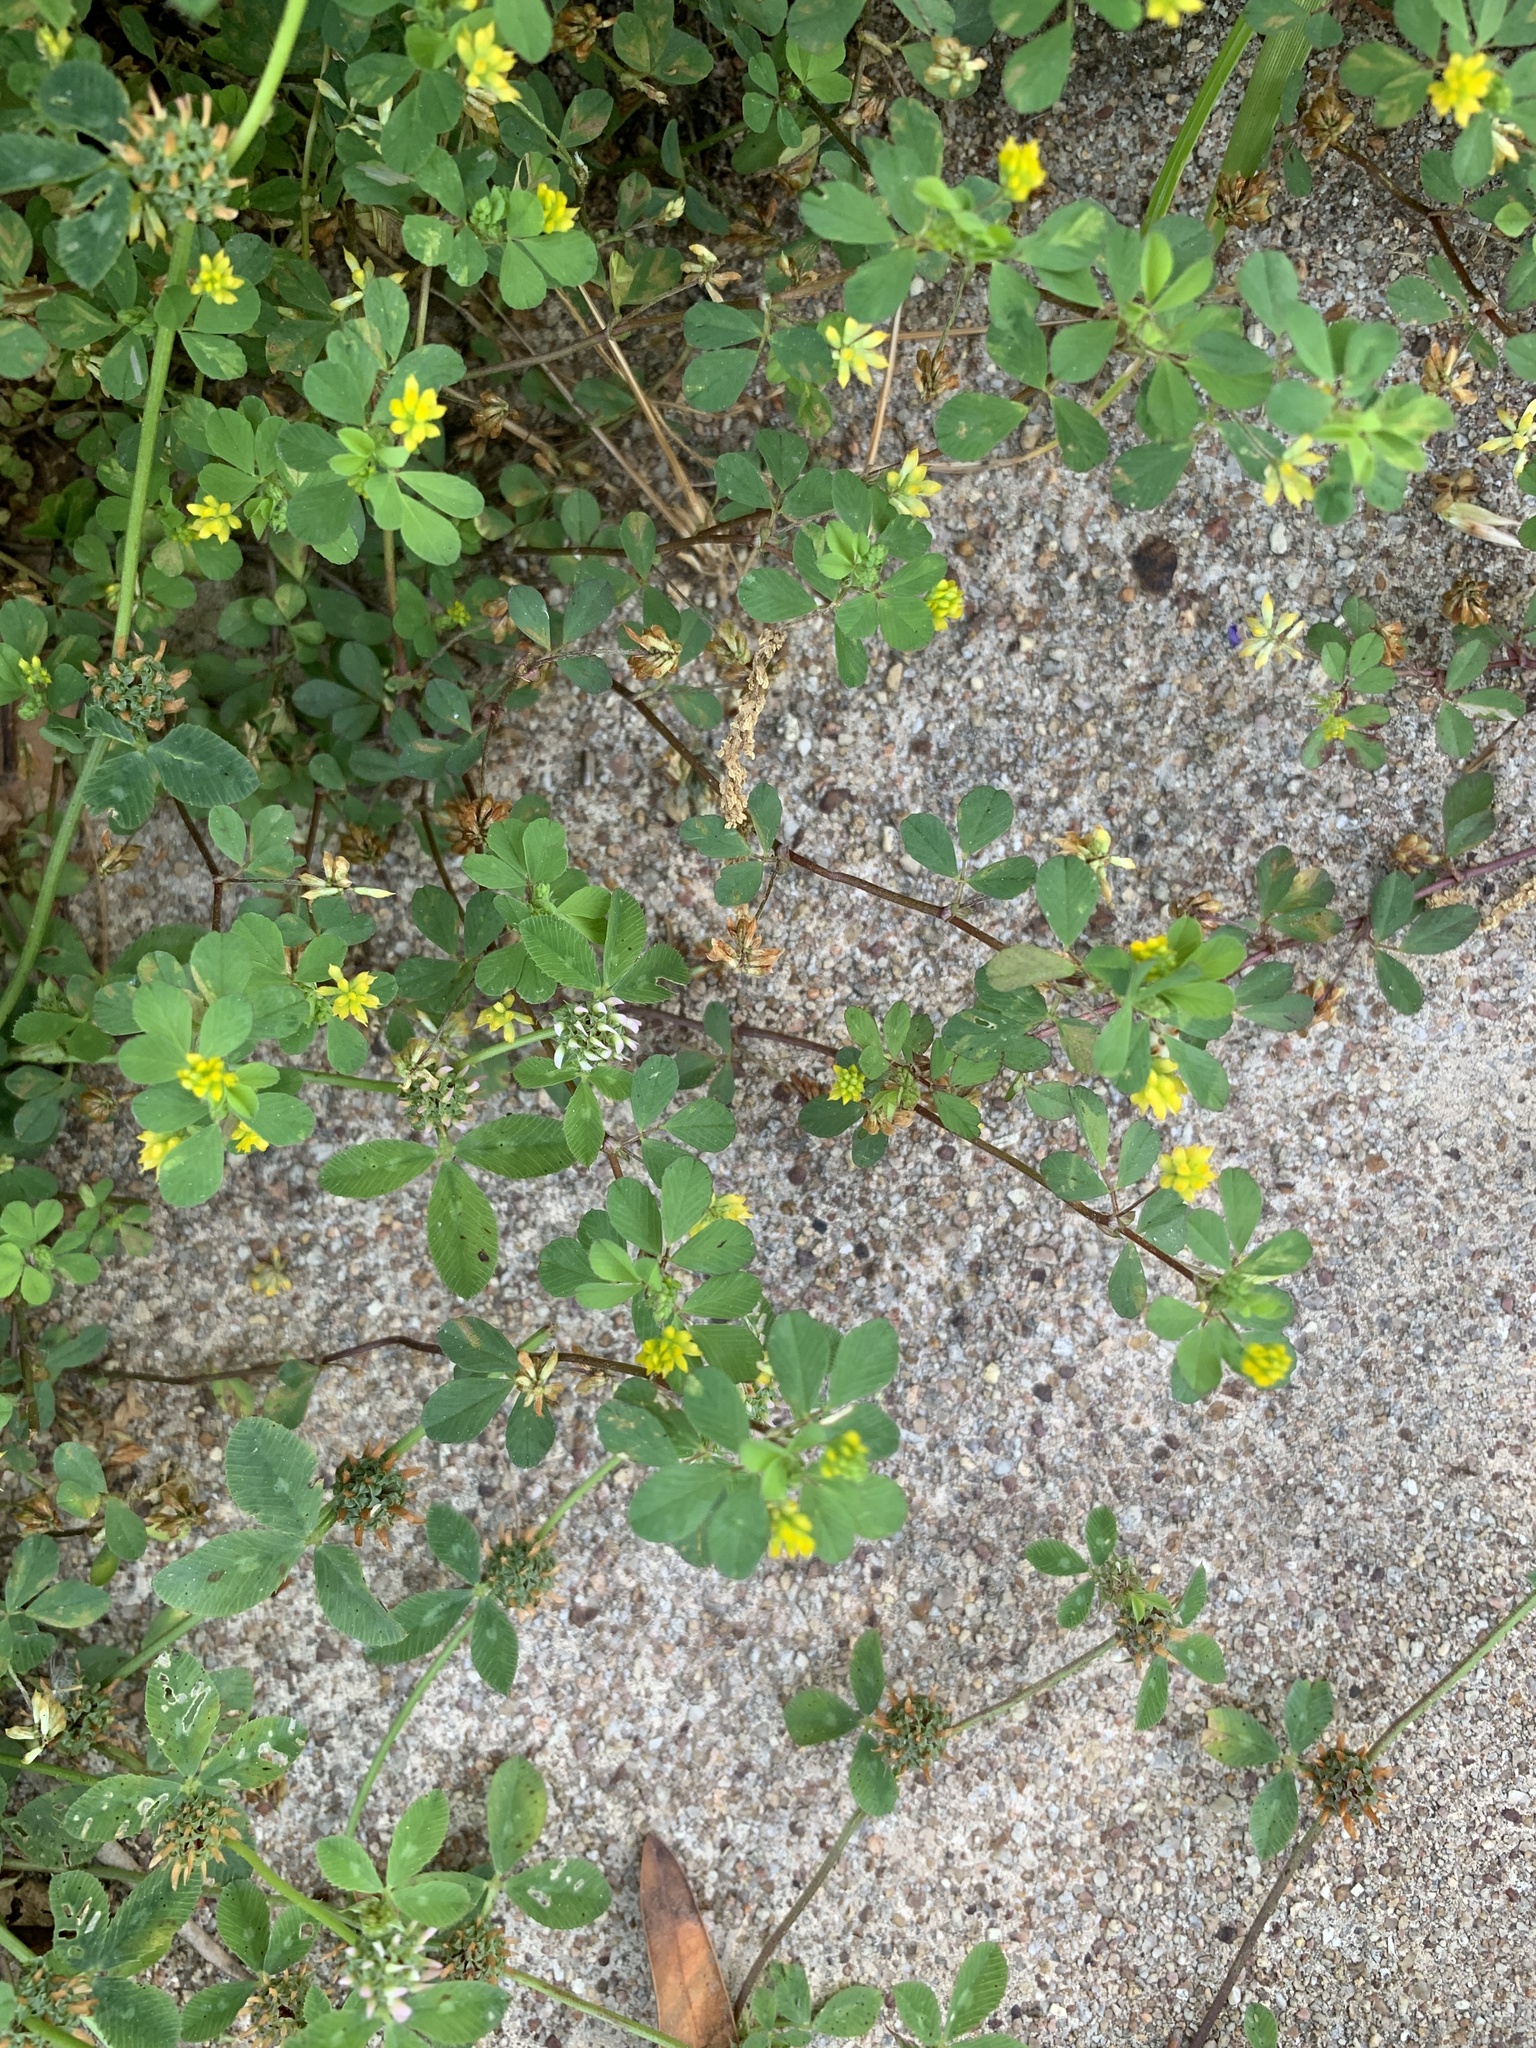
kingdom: Plantae
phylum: Tracheophyta
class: Magnoliopsida
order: Fabales
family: Fabaceae
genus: Trifolium
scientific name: Trifolium dubium
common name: Suckling clover
